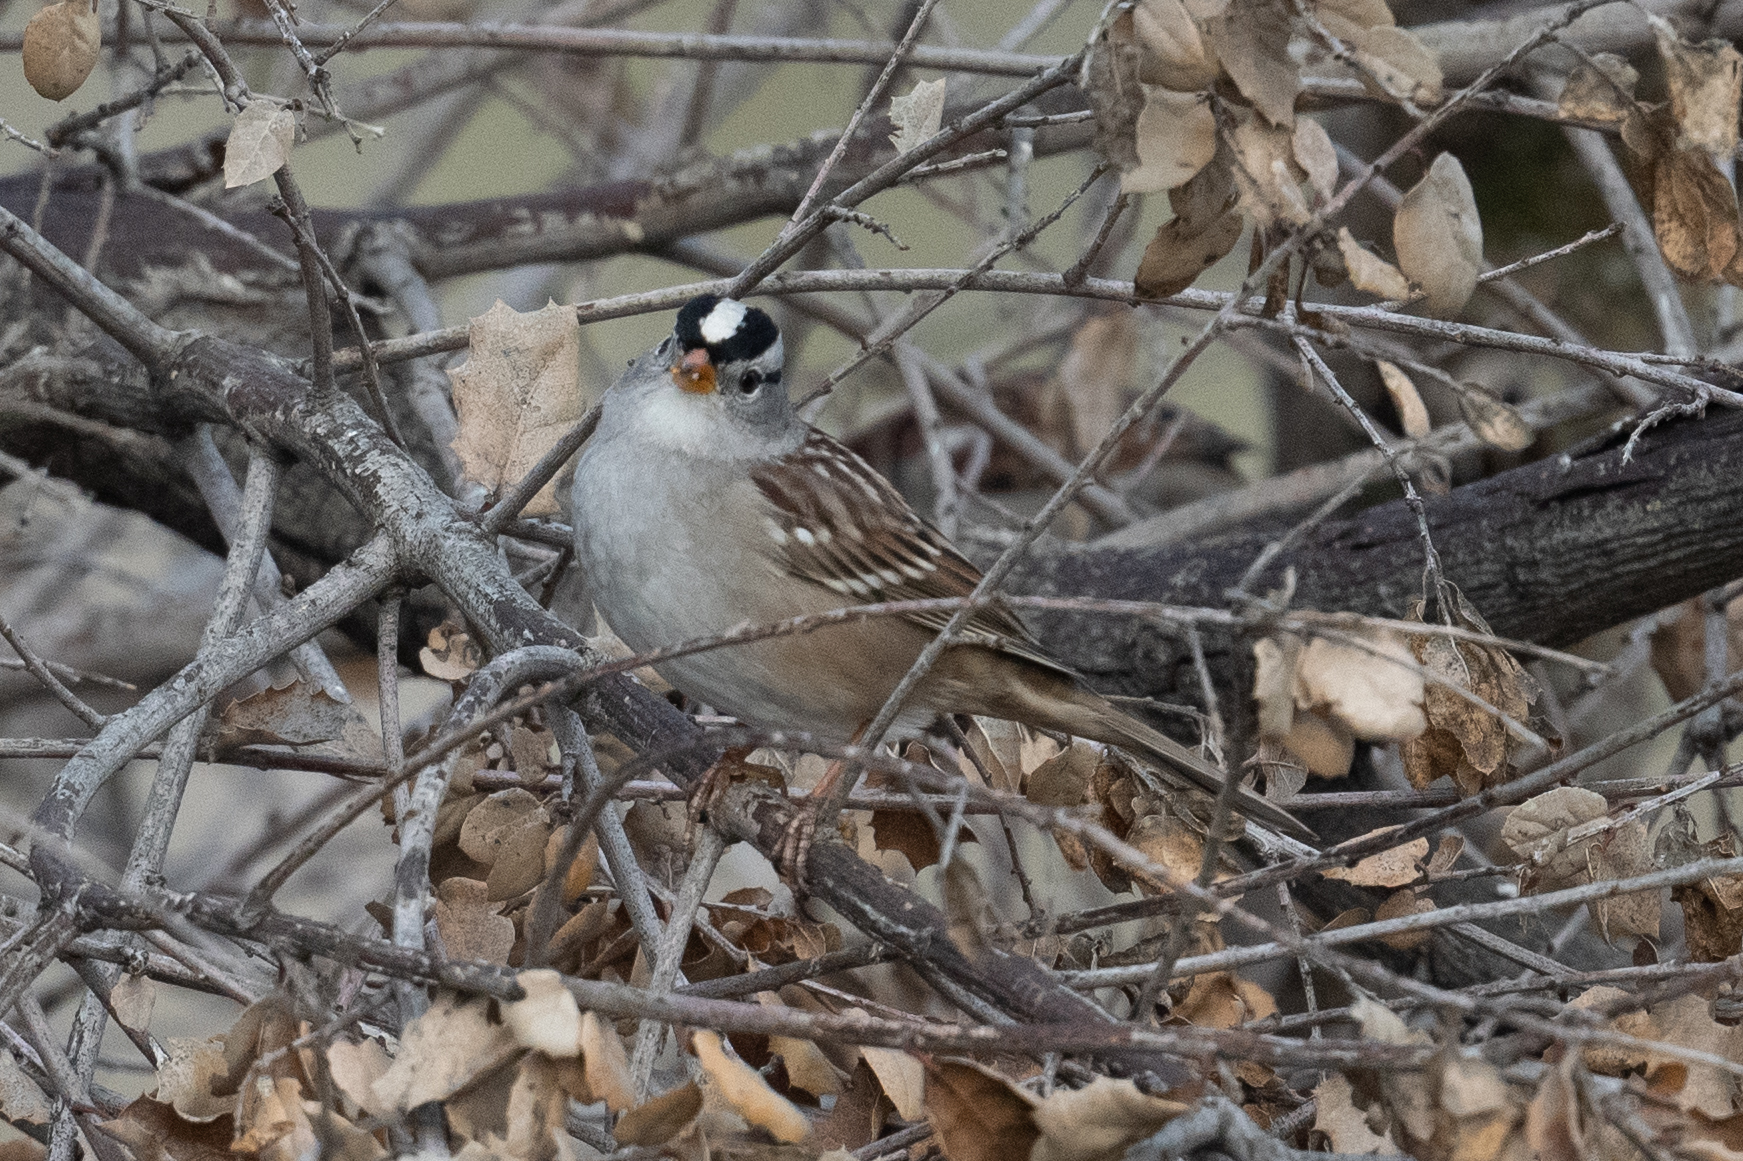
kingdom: Animalia
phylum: Chordata
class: Aves
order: Passeriformes
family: Passerellidae
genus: Zonotrichia
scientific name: Zonotrichia leucophrys
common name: White-crowned sparrow
